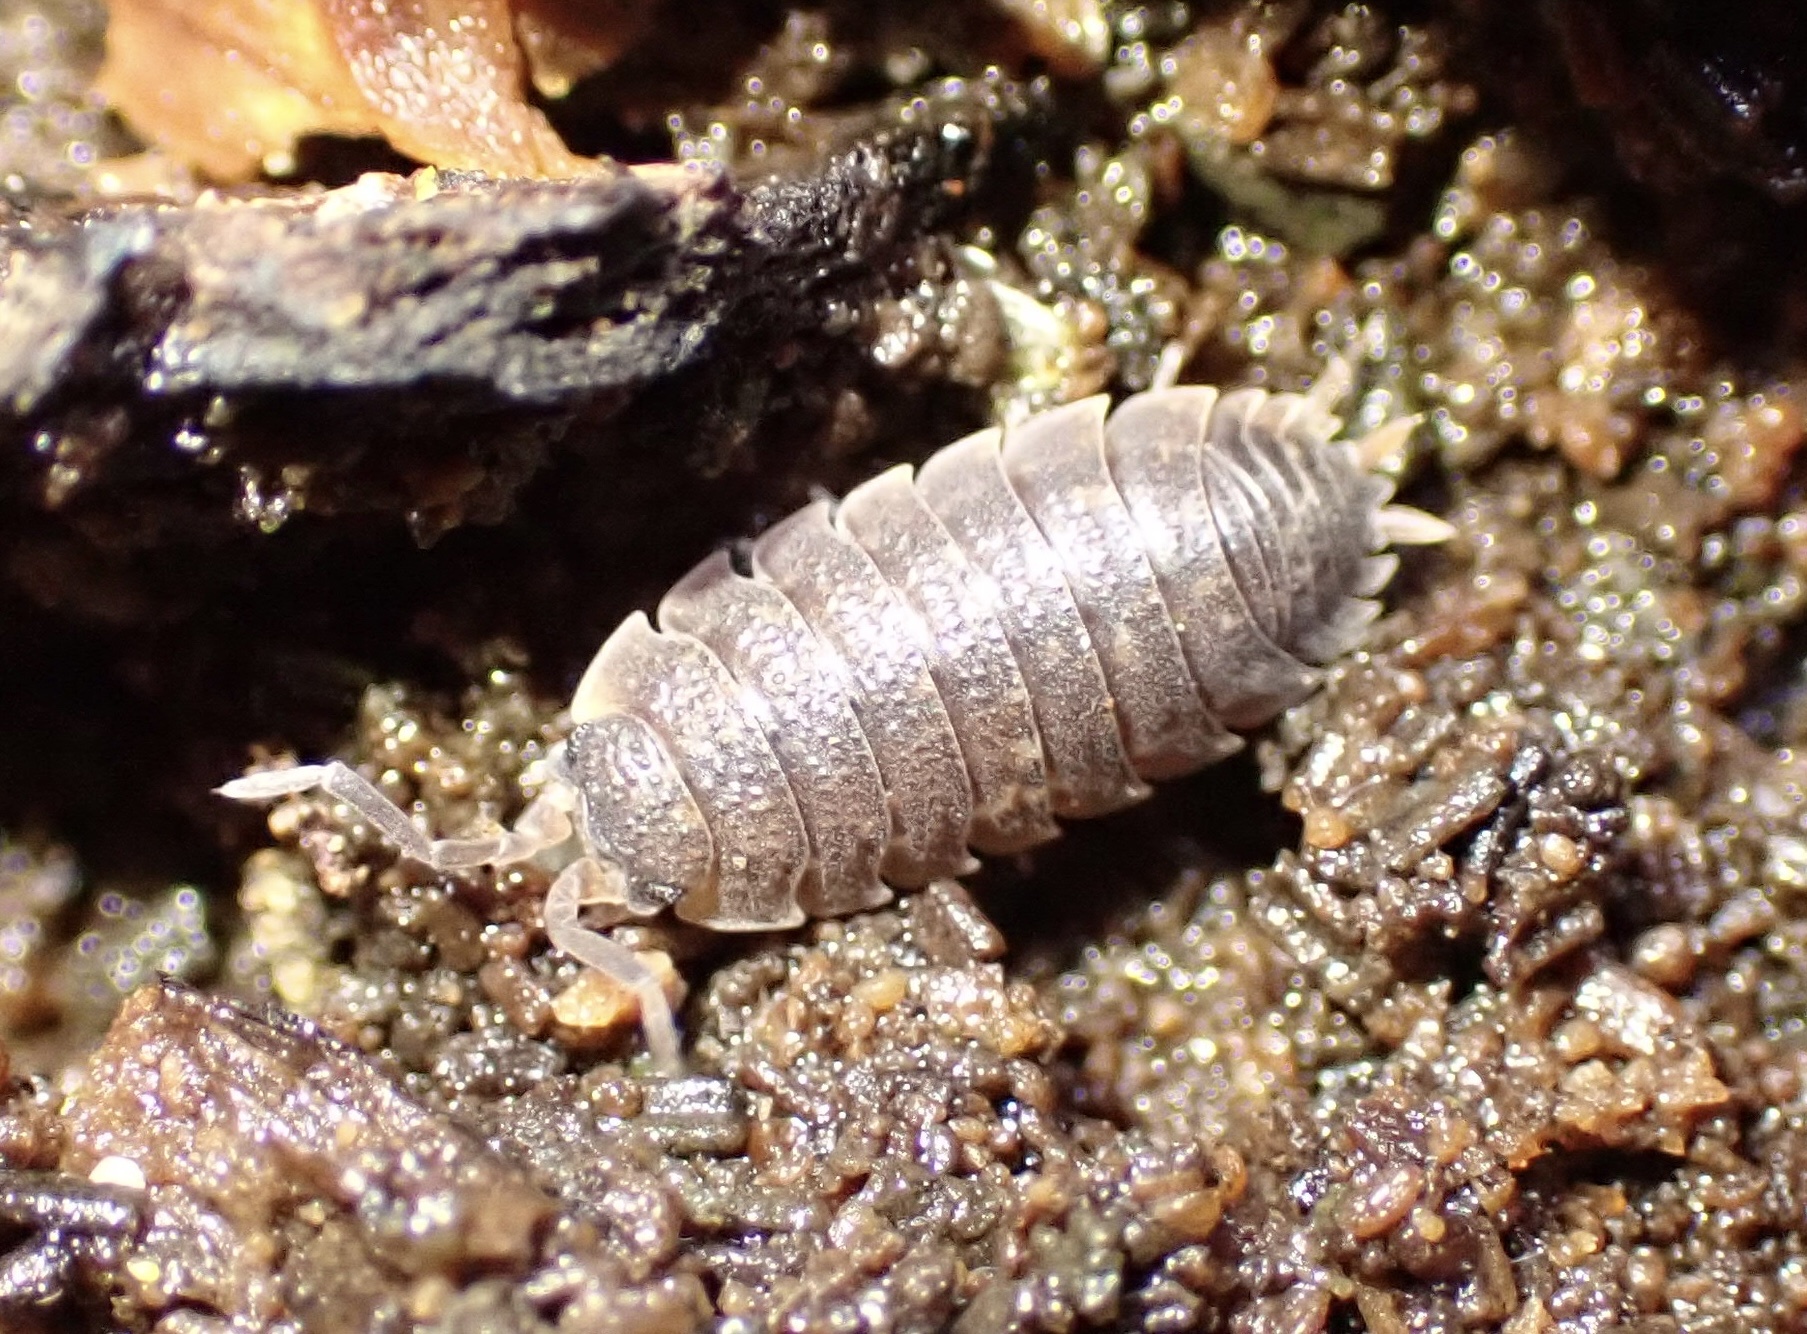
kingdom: Animalia
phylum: Arthropoda
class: Malacostraca
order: Isopoda
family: Porcellionidae
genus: Porcellio
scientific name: Porcellio scaber
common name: Common rough woodlouse
